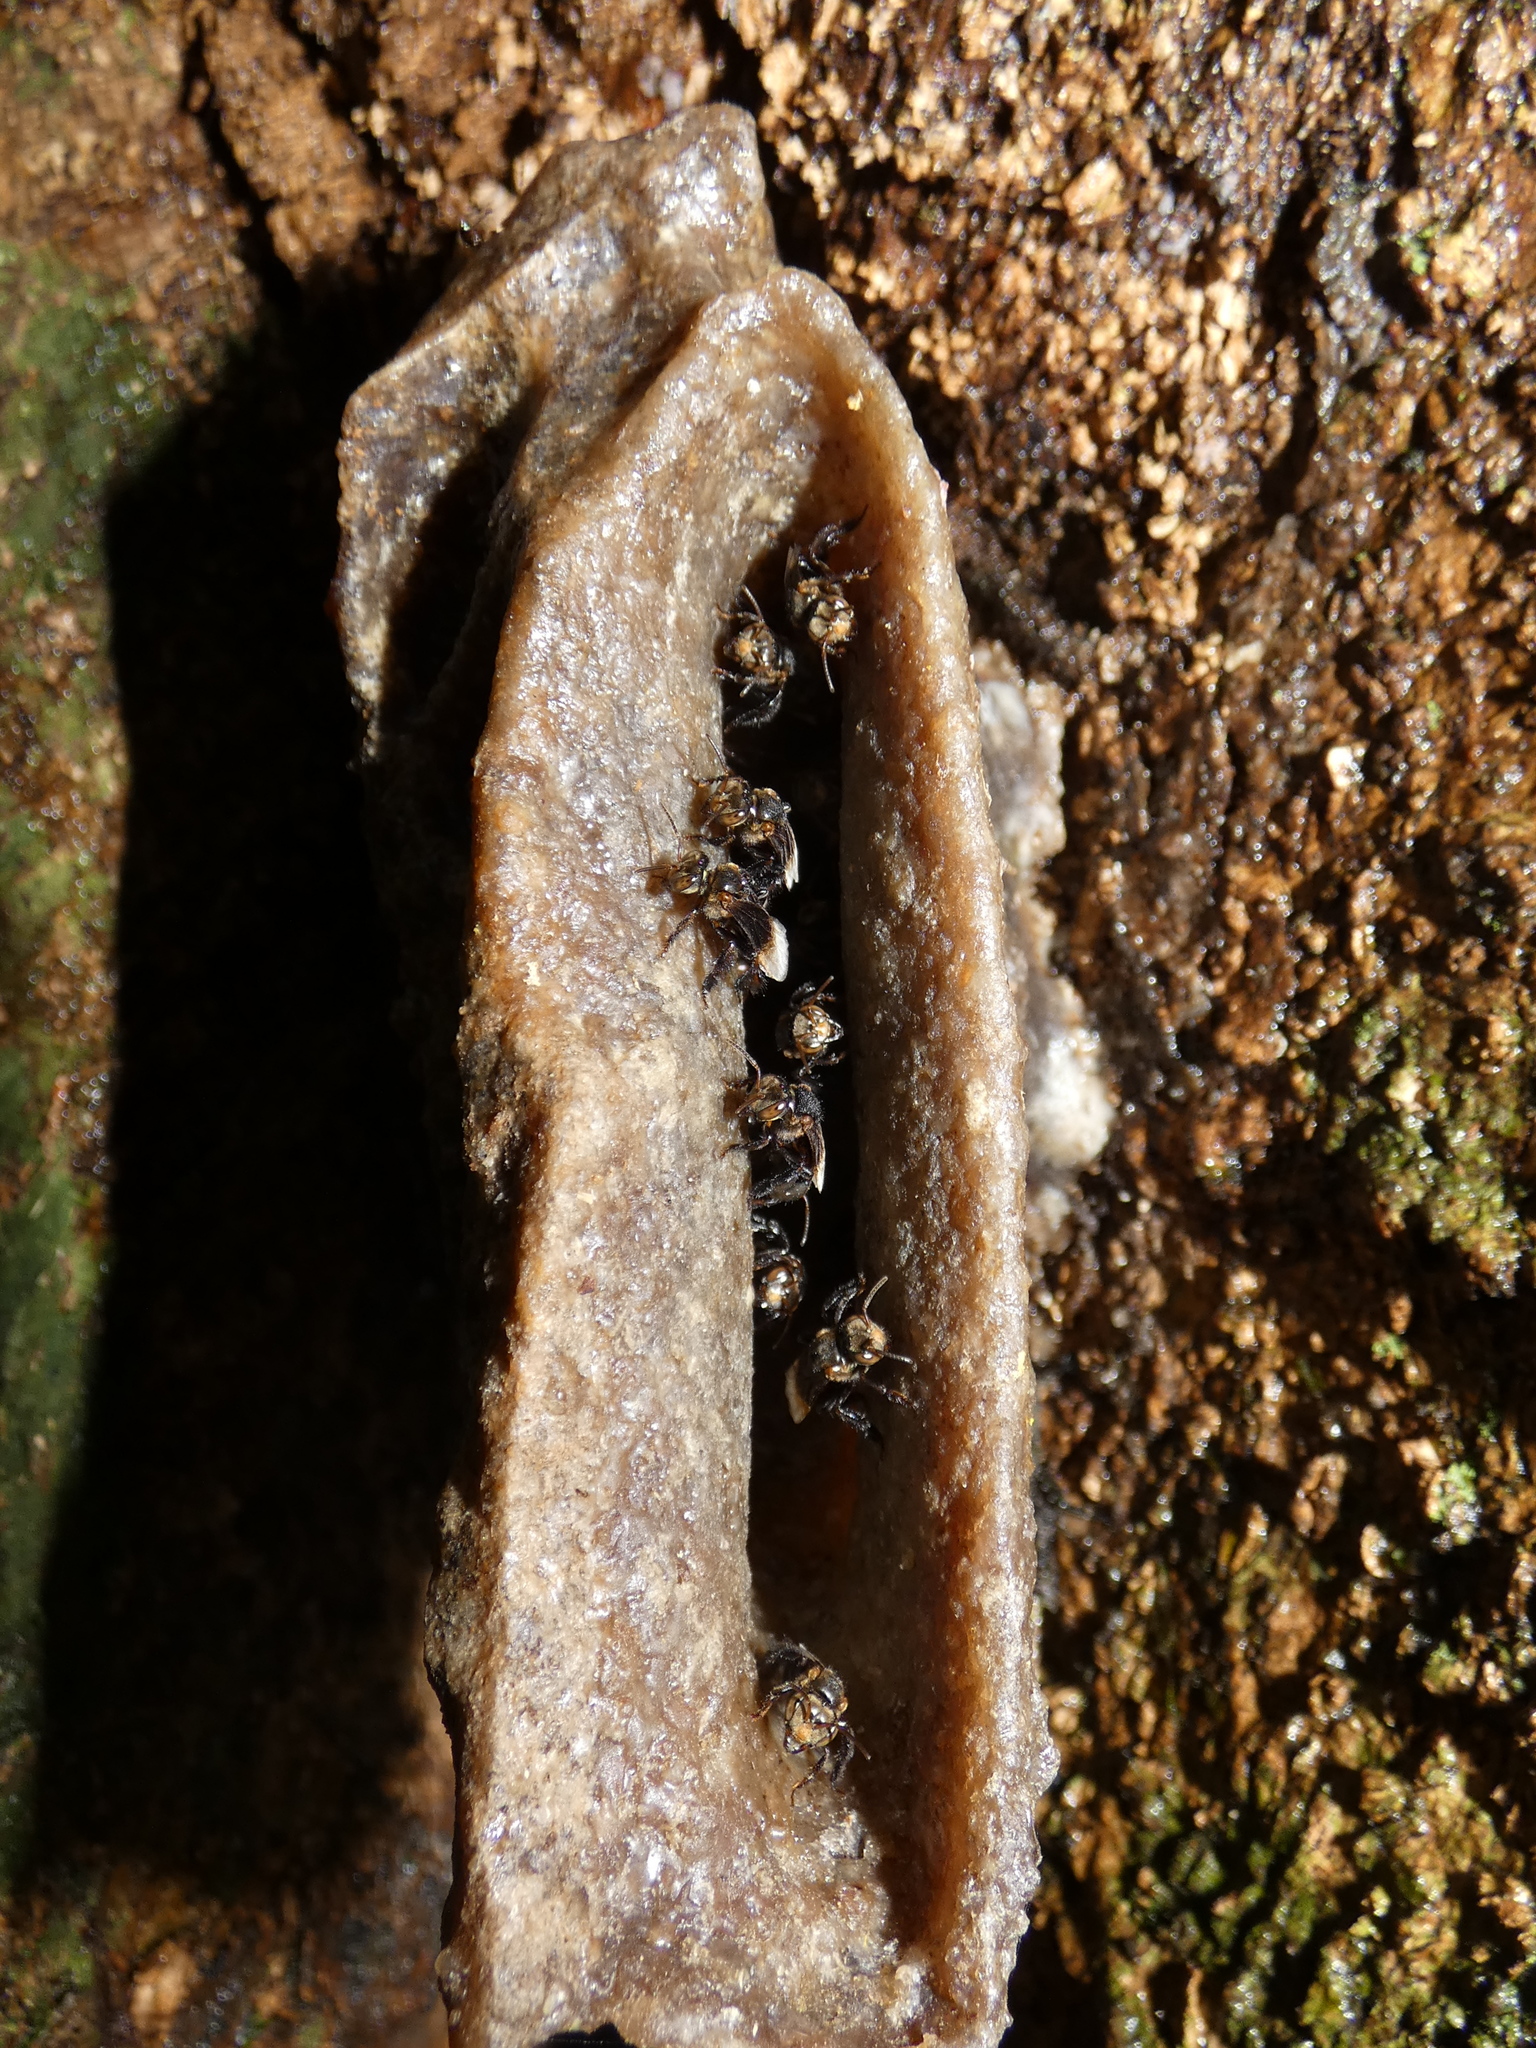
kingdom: Animalia
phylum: Arthropoda
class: Insecta
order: Hymenoptera
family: Apidae
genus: Homotrigona
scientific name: Homotrigona apicalis
